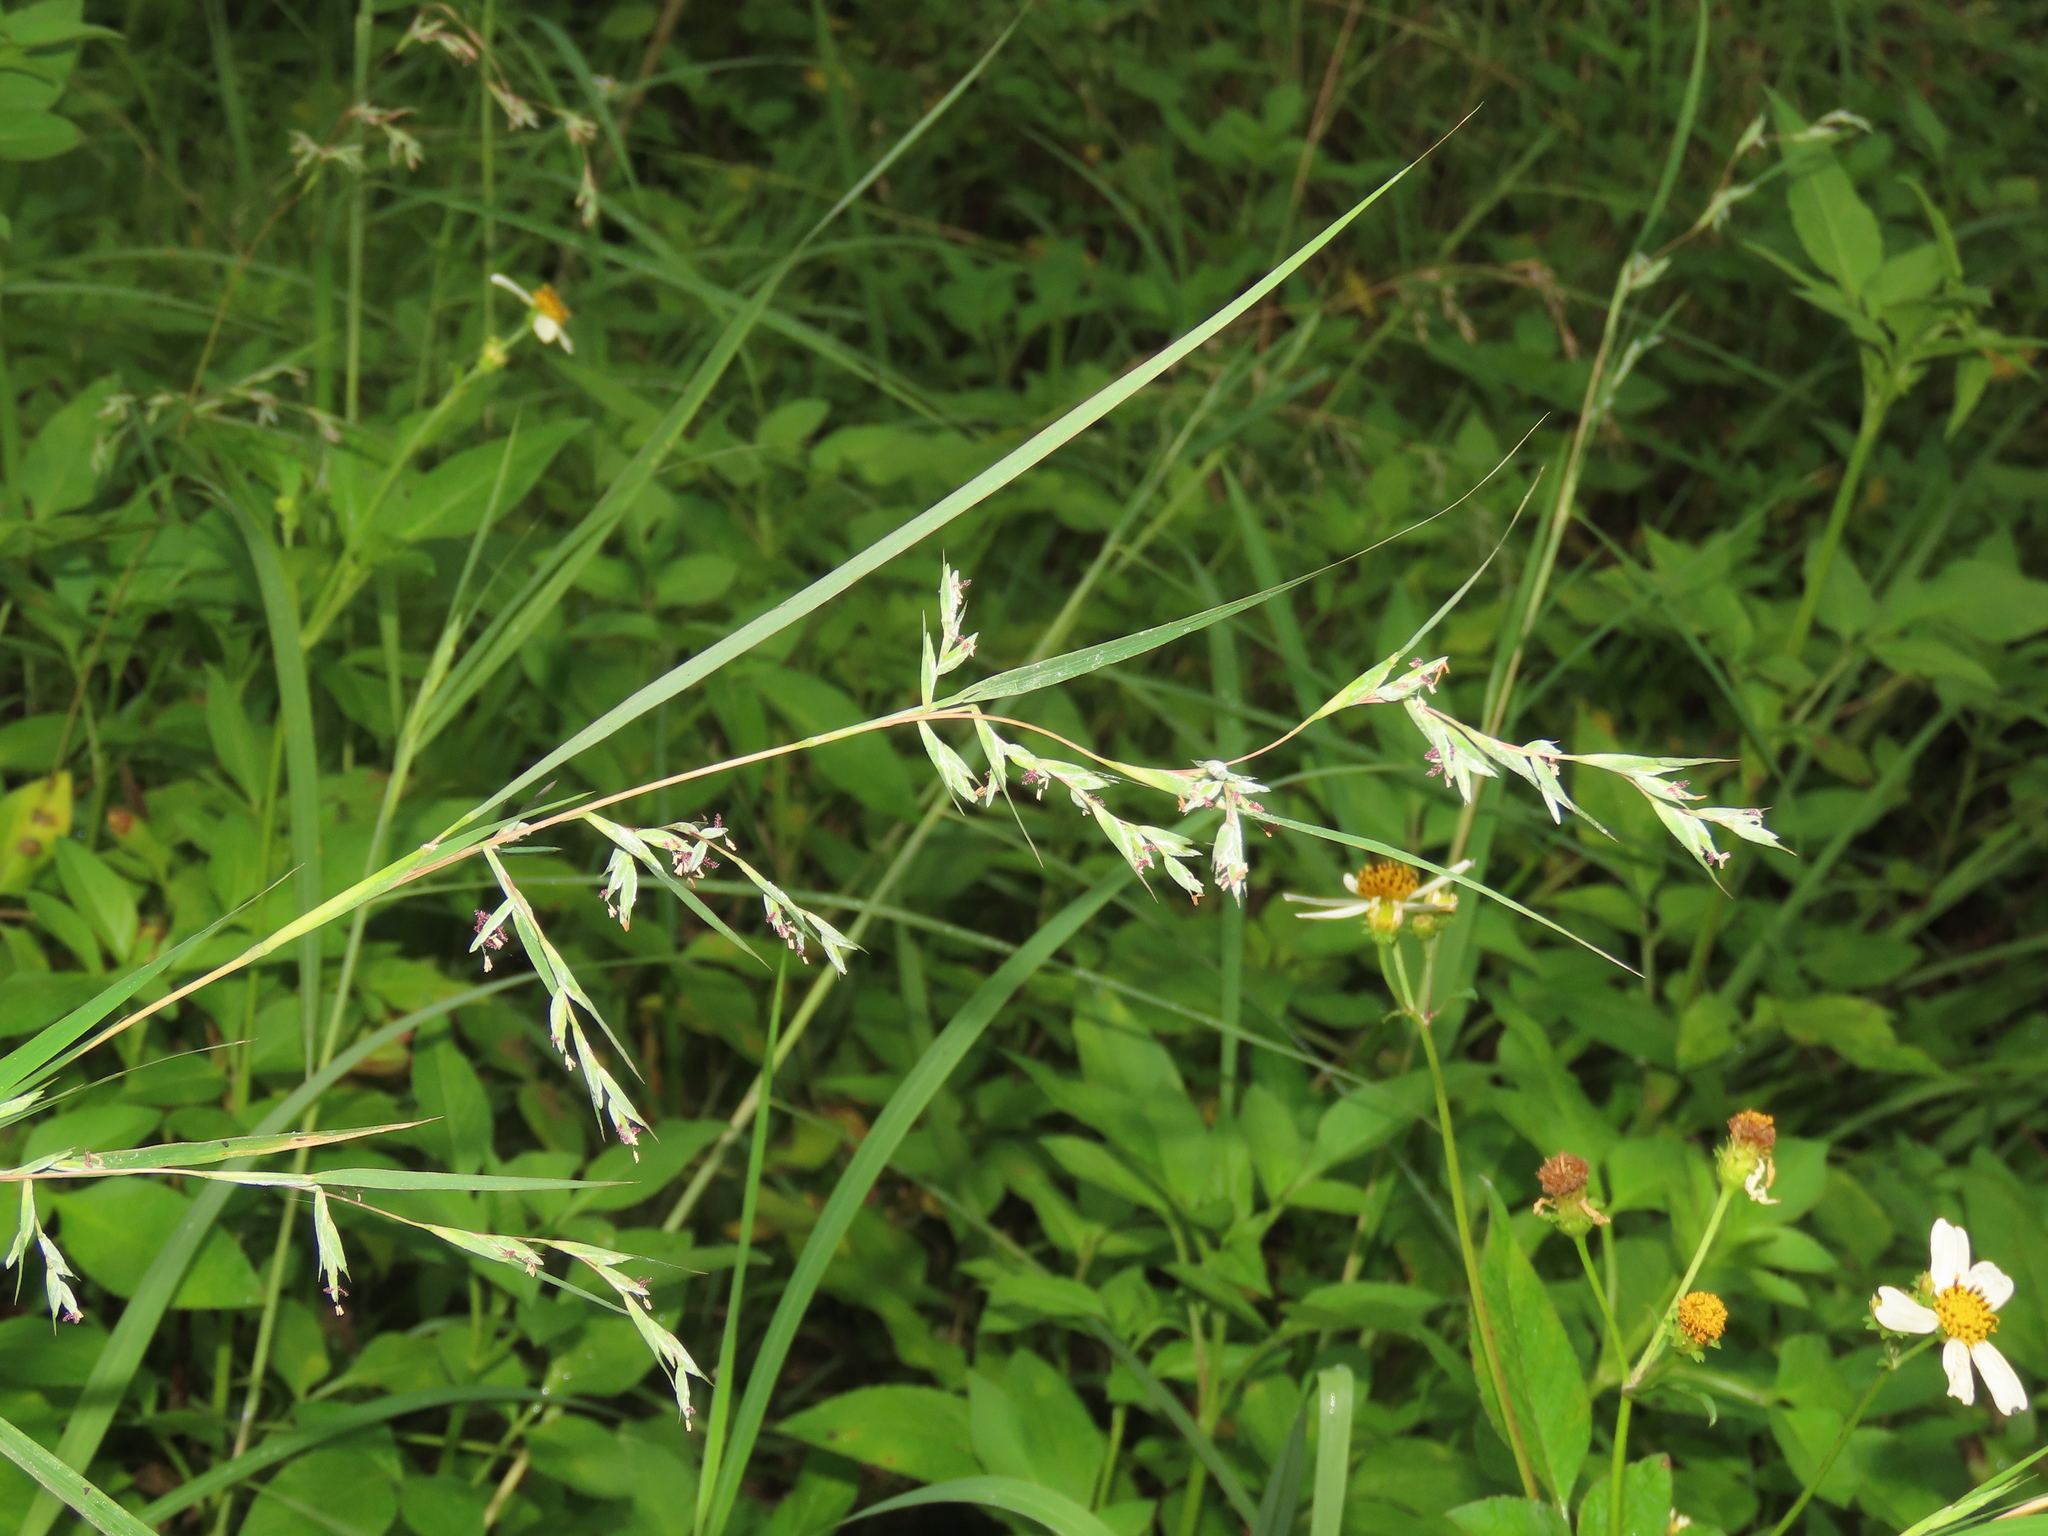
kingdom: Plantae
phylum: Tracheophyta
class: Liliopsida
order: Poales
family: Poaceae
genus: Apluda
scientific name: Apluda mutica
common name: Mauritian grass
